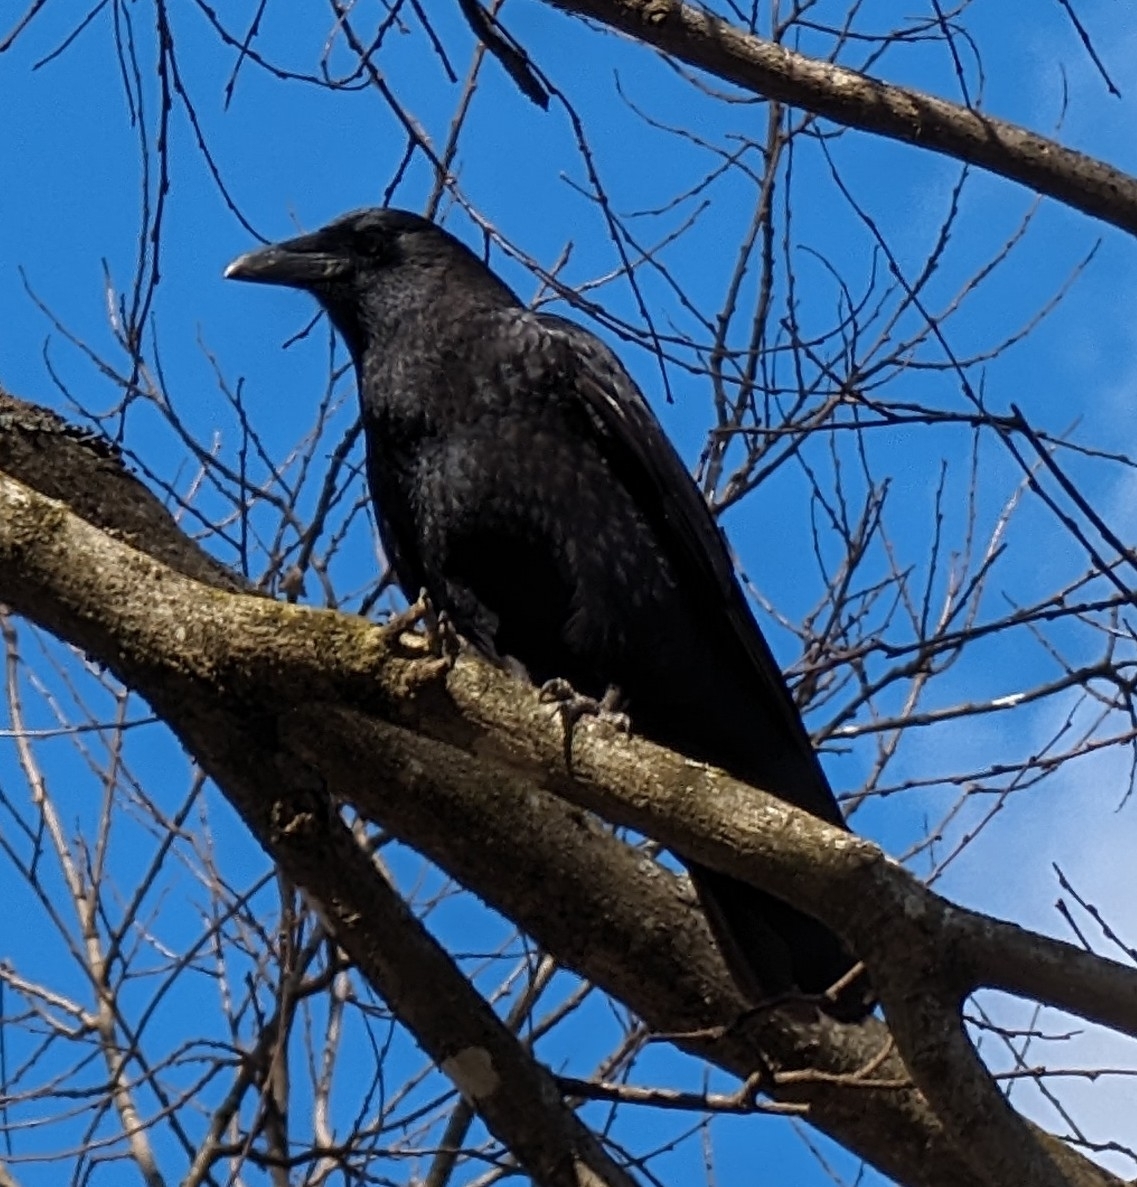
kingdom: Animalia
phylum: Chordata
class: Aves
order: Passeriformes
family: Corvidae
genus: Corvus
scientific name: Corvus brachyrhynchos
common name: American crow
